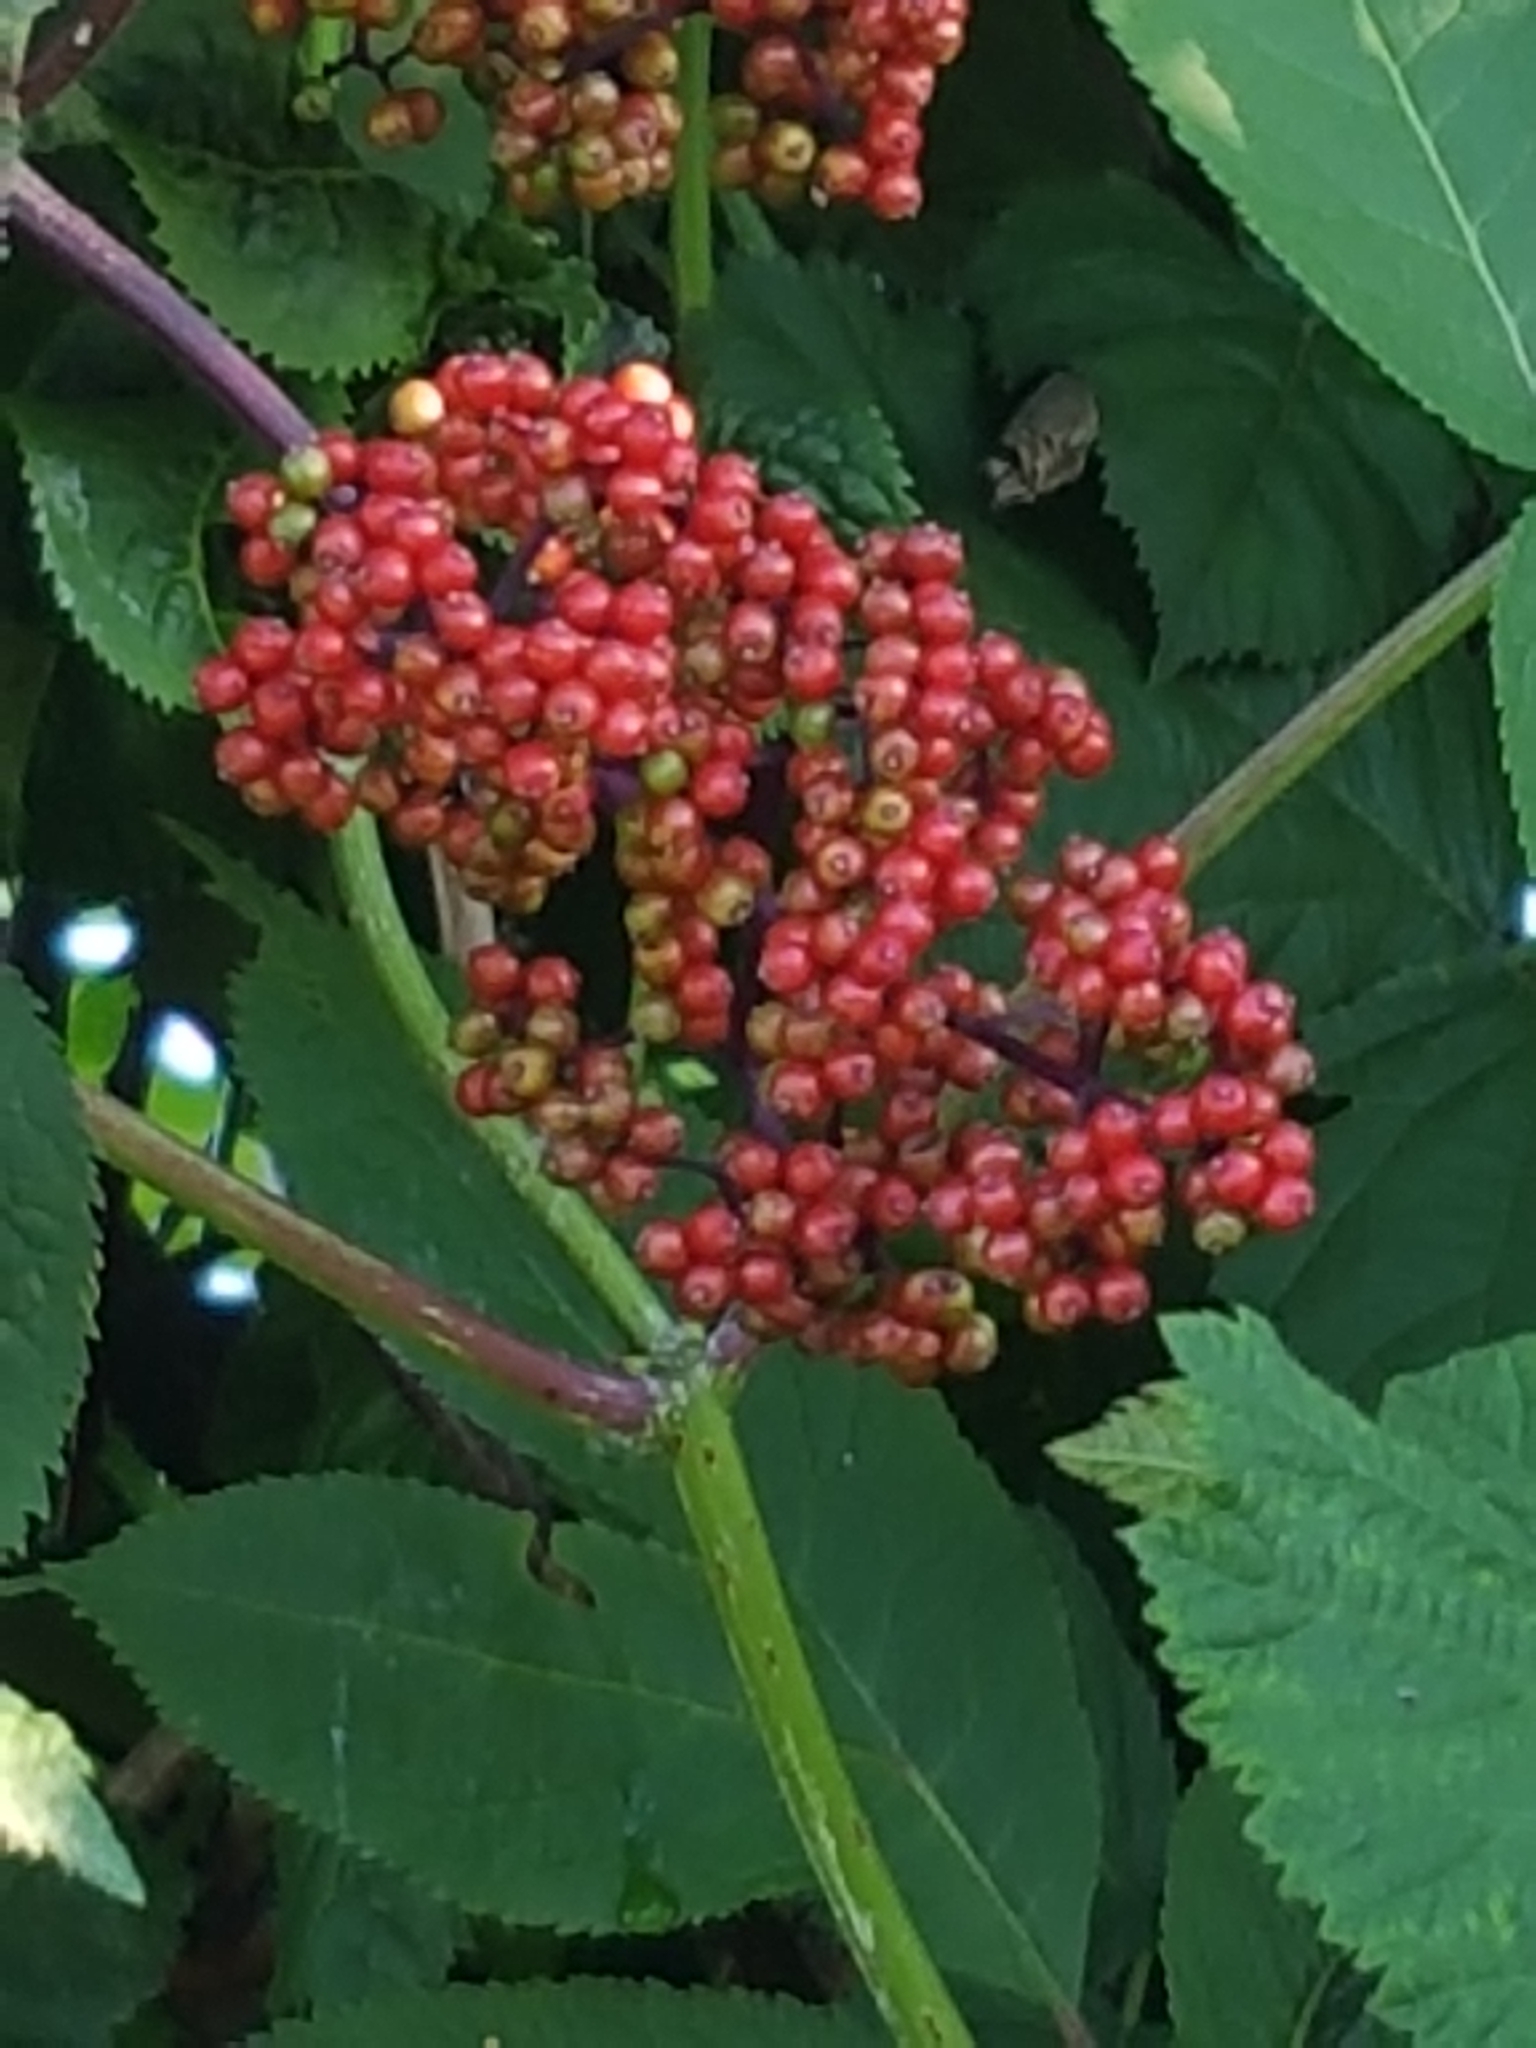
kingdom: Plantae
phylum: Tracheophyta
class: Magnoliopsida
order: Dipsacales
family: Viburnaceae
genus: Sambucus
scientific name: Sambucus racemosa
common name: Red-berried elder
